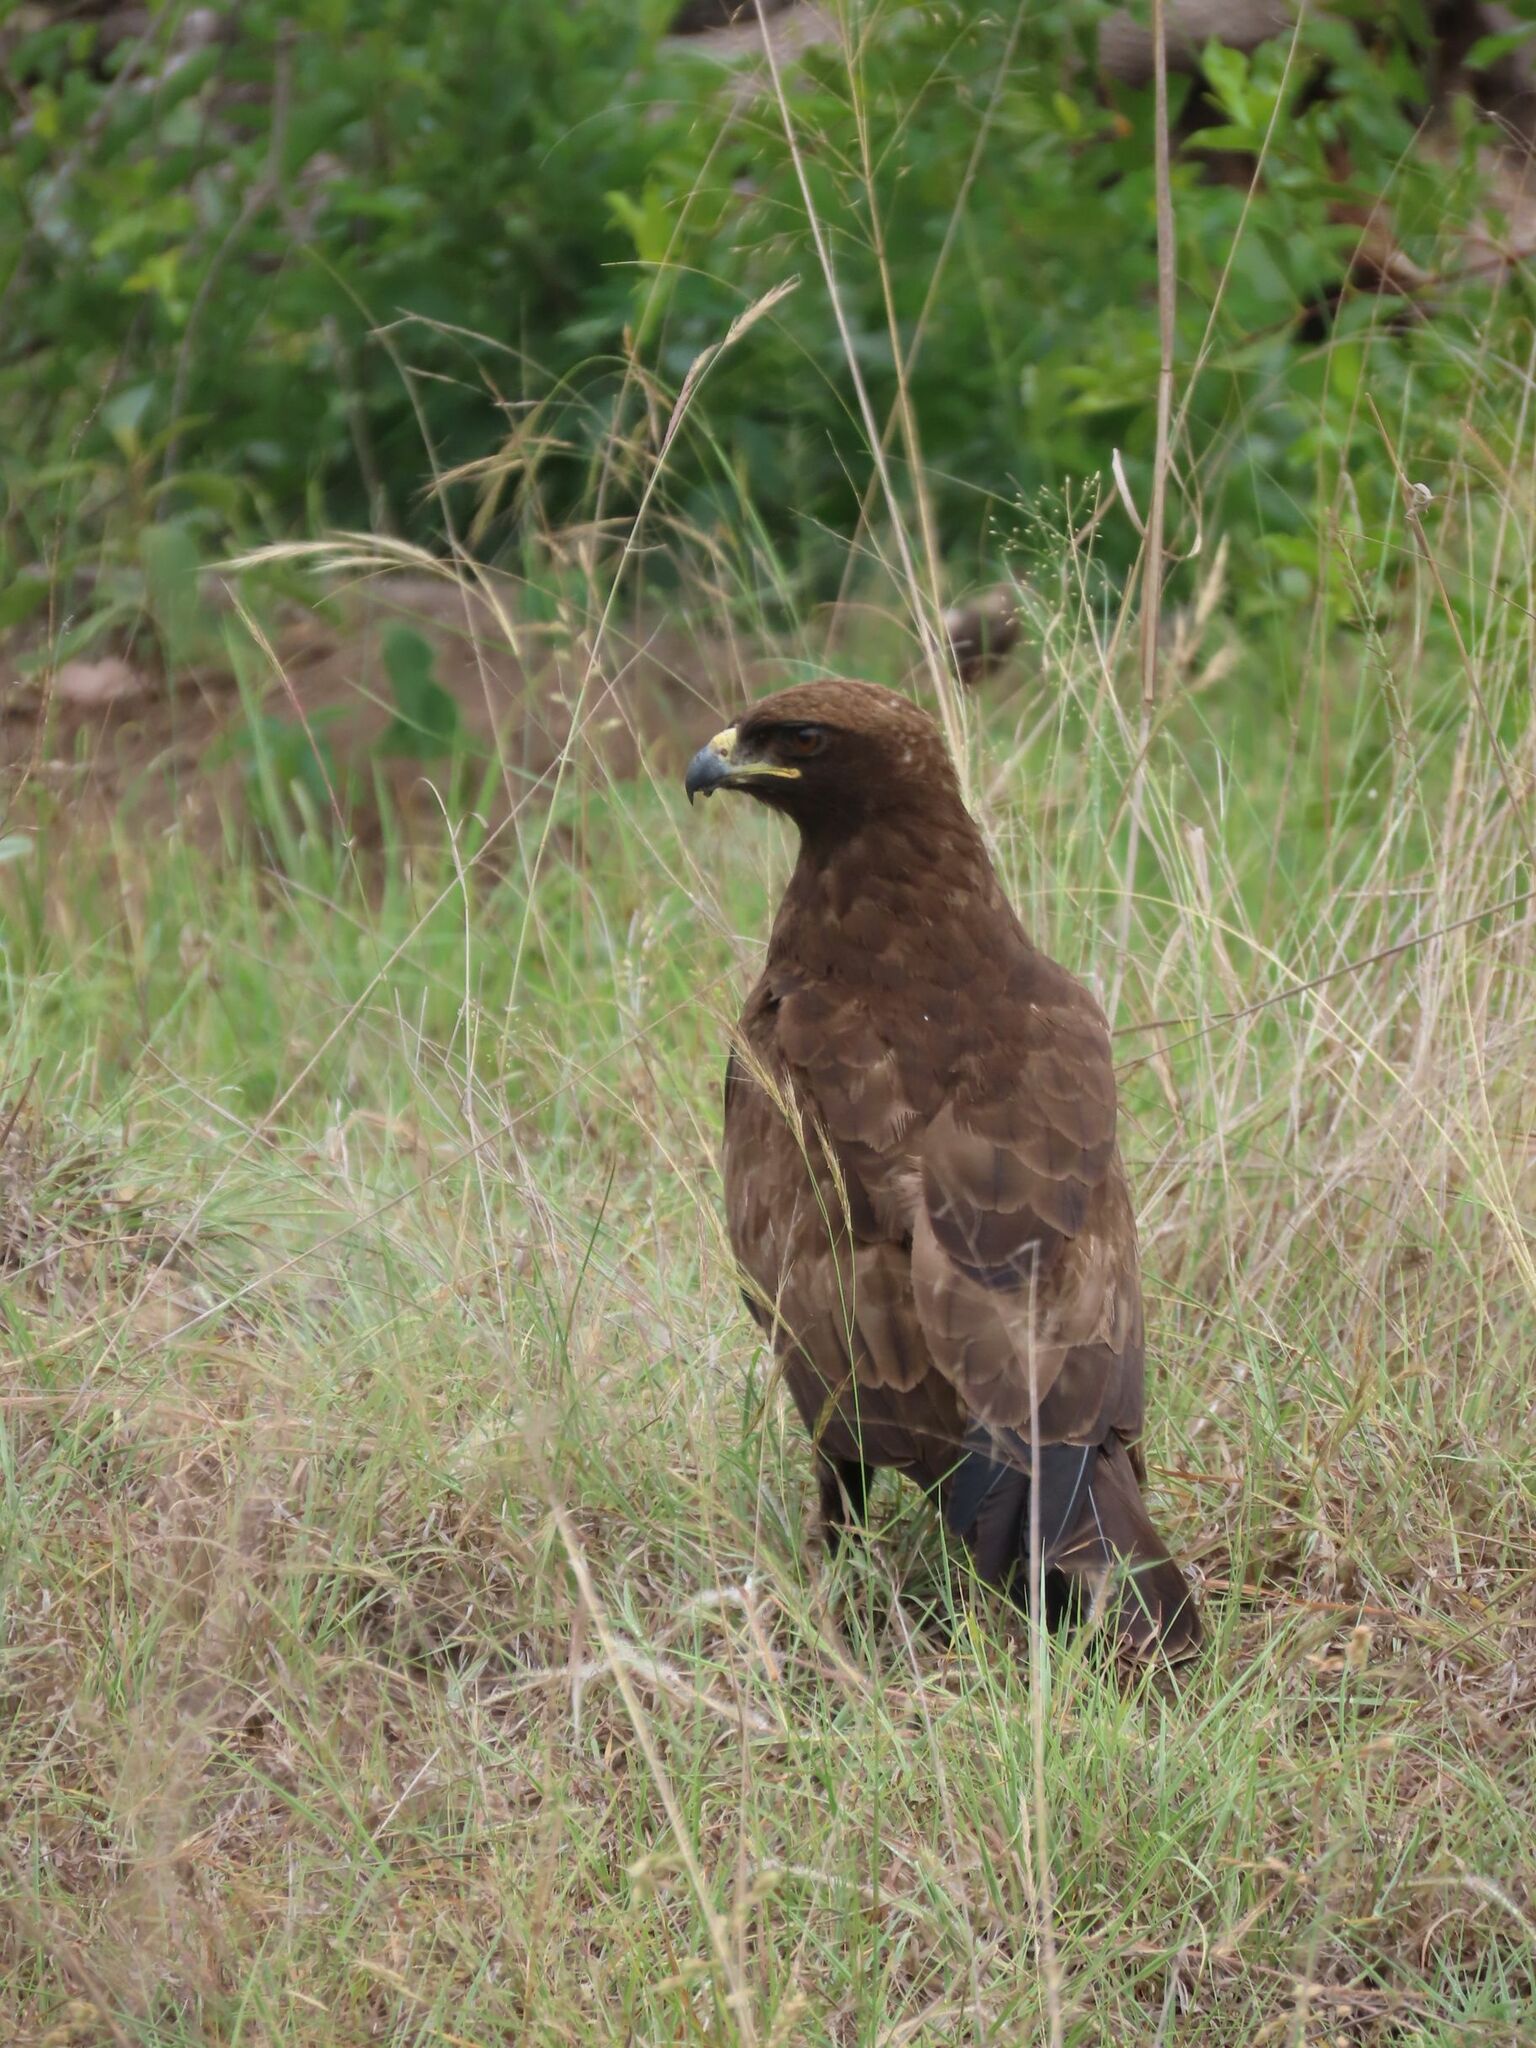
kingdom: Animalia
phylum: Chordata
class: Aves
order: Accipitriformes
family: Accipitridae
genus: Hieraaetus
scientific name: Hieraaetus wahlbergi
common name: Wahlberg's eagle
